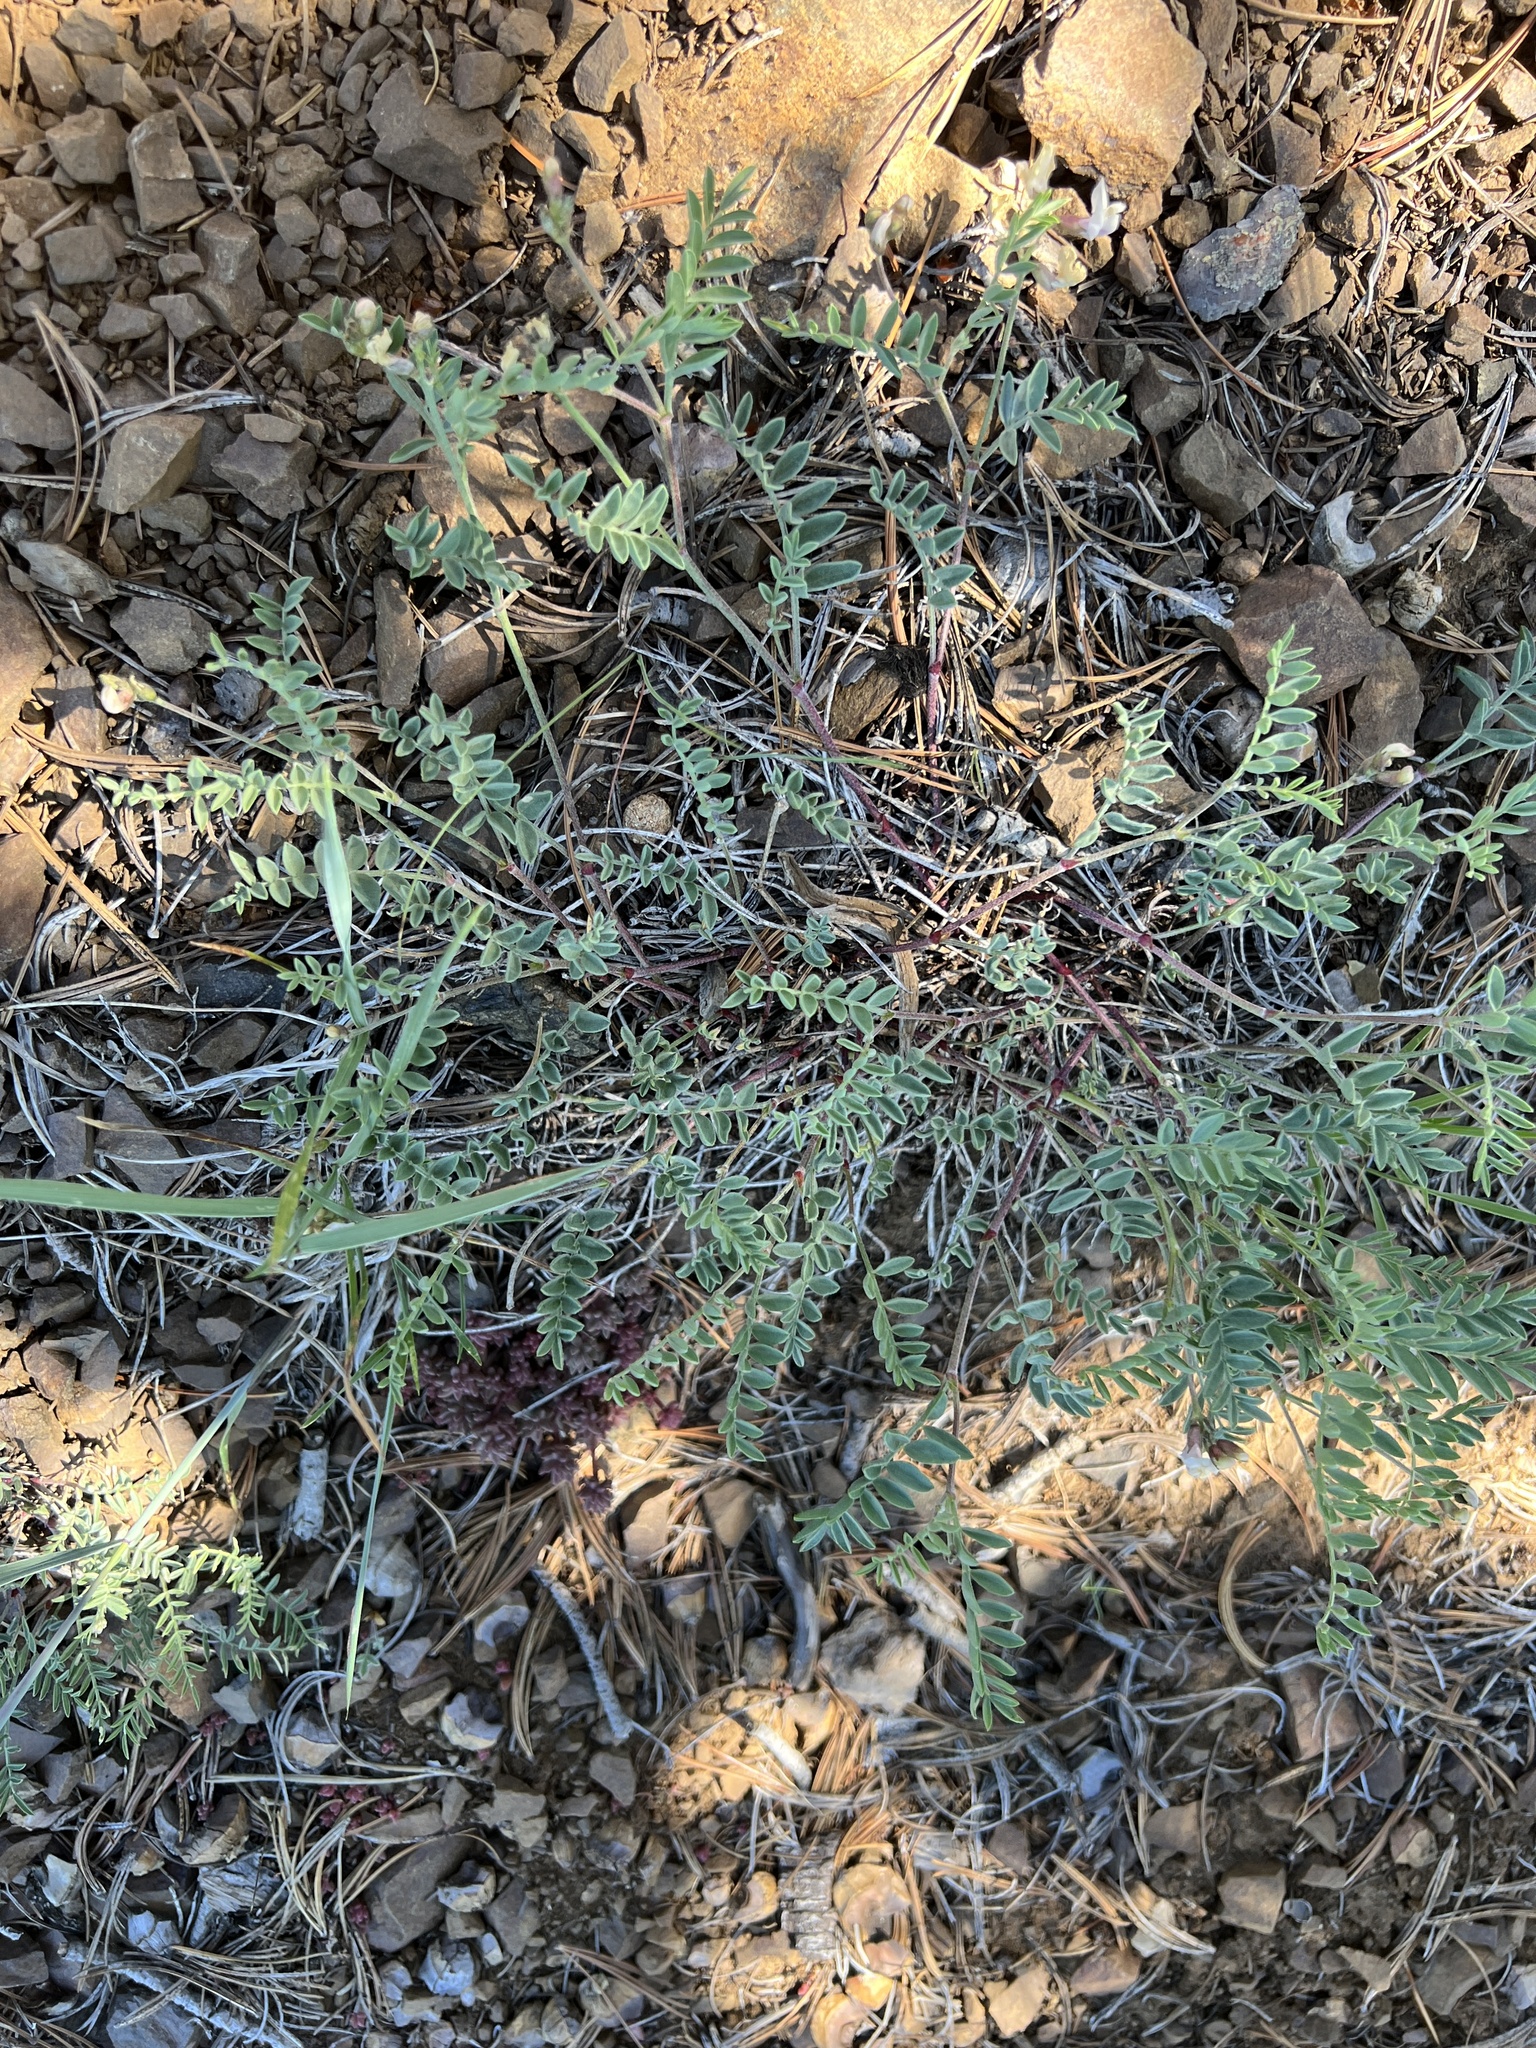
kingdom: Plantae
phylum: Tracheophyta
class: Magnoliopsida
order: Fabales
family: Fabaceae
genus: Astragalus
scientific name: Astragalus whitneyi
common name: Balloonpod milkvetch
